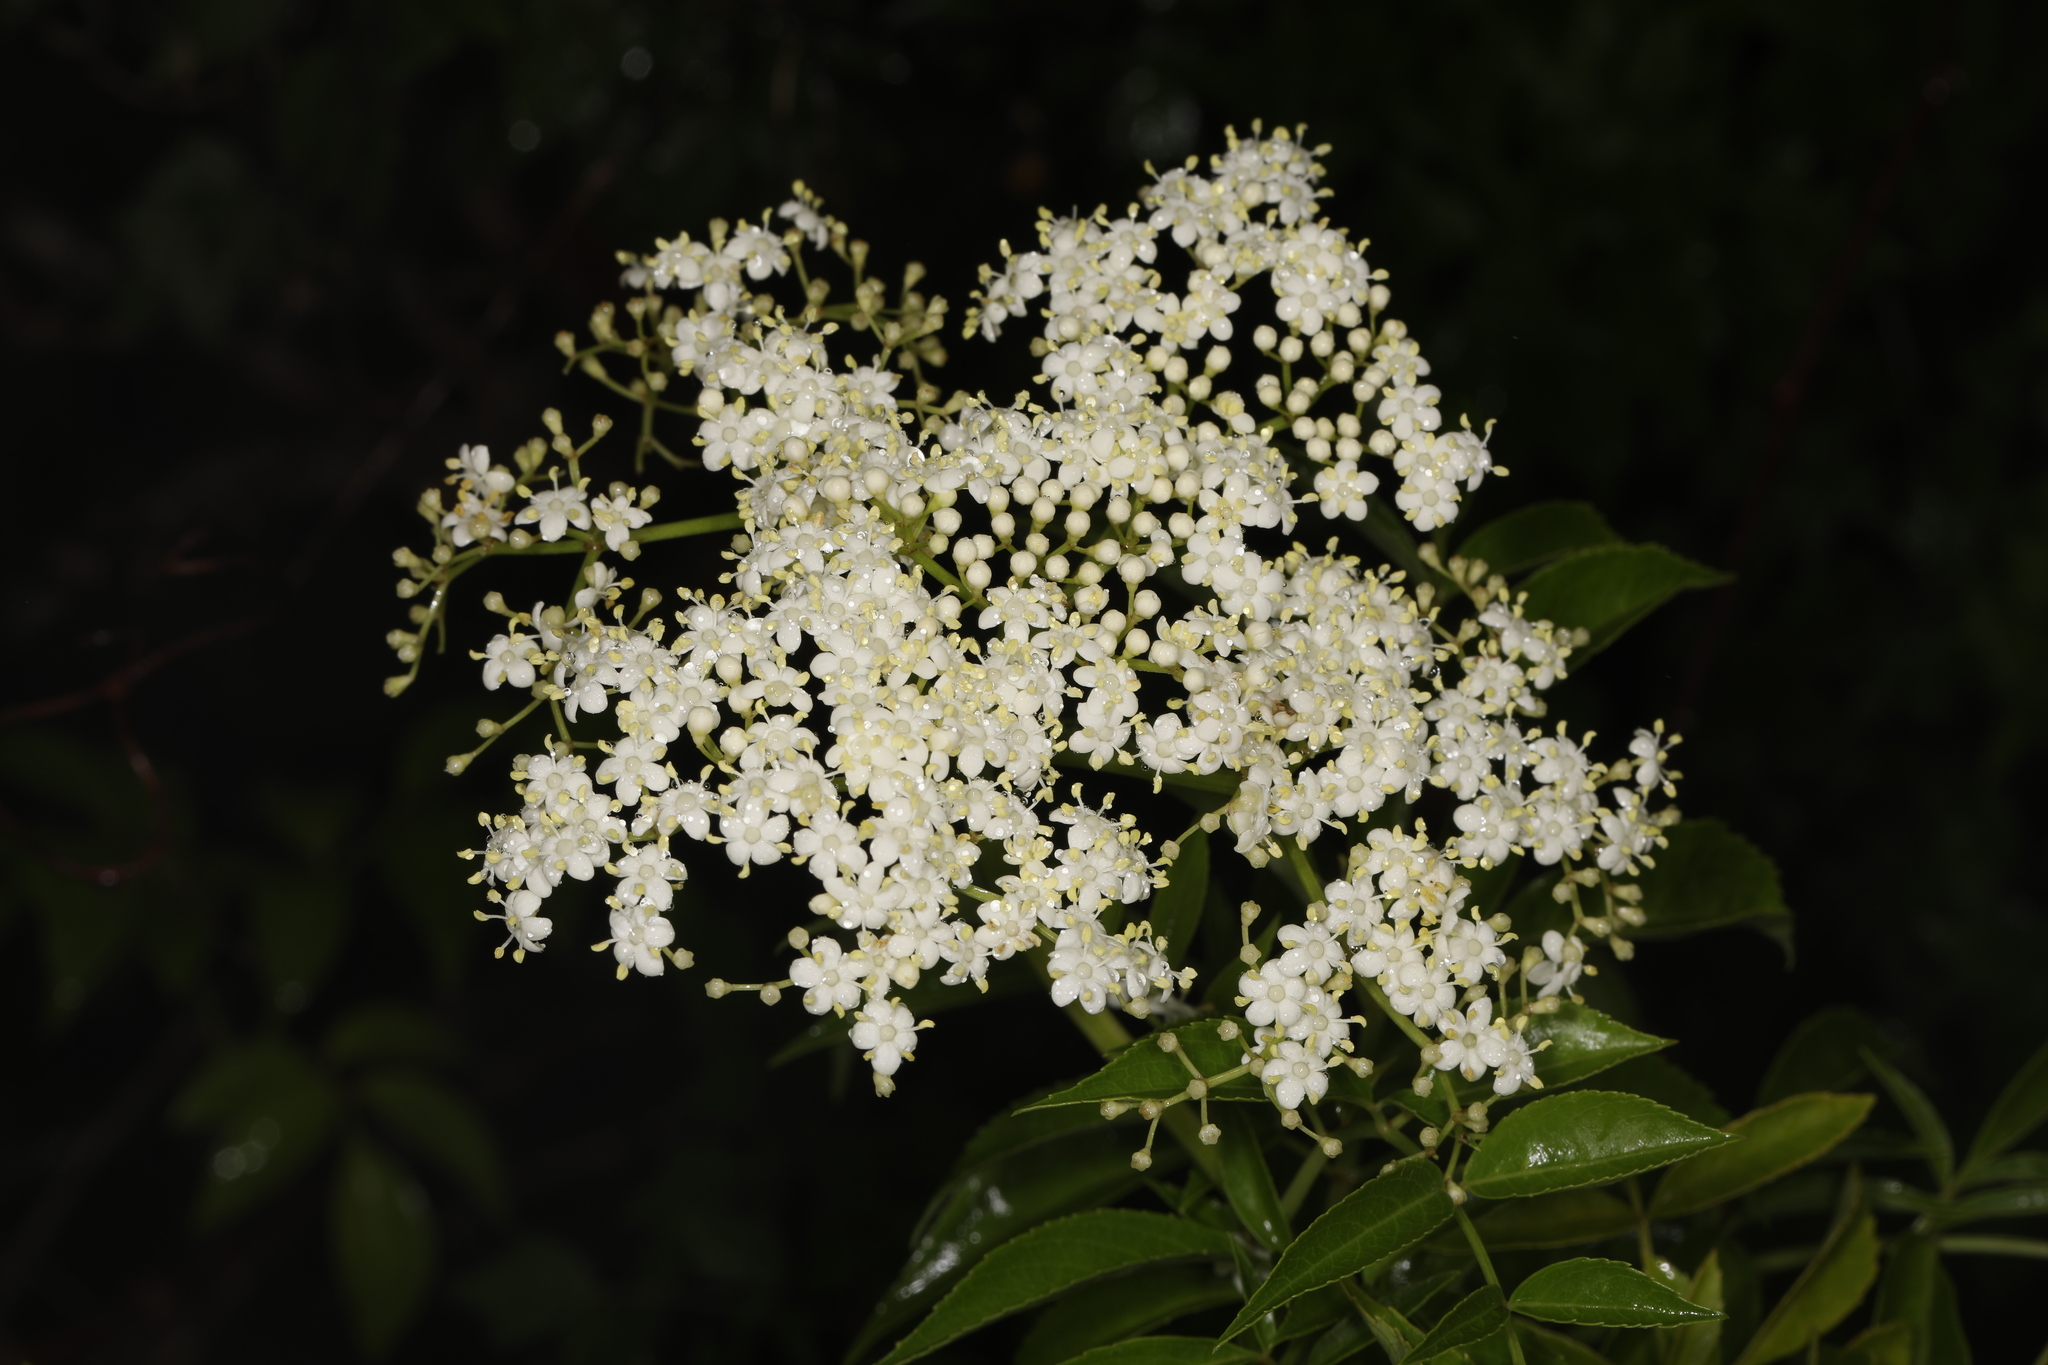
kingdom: Plantae
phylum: Tracheophyta
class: Magnoliopsida
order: Dipsacales
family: Viburnaceae
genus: Sambucus
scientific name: Sambucus canadensis
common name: American elder
